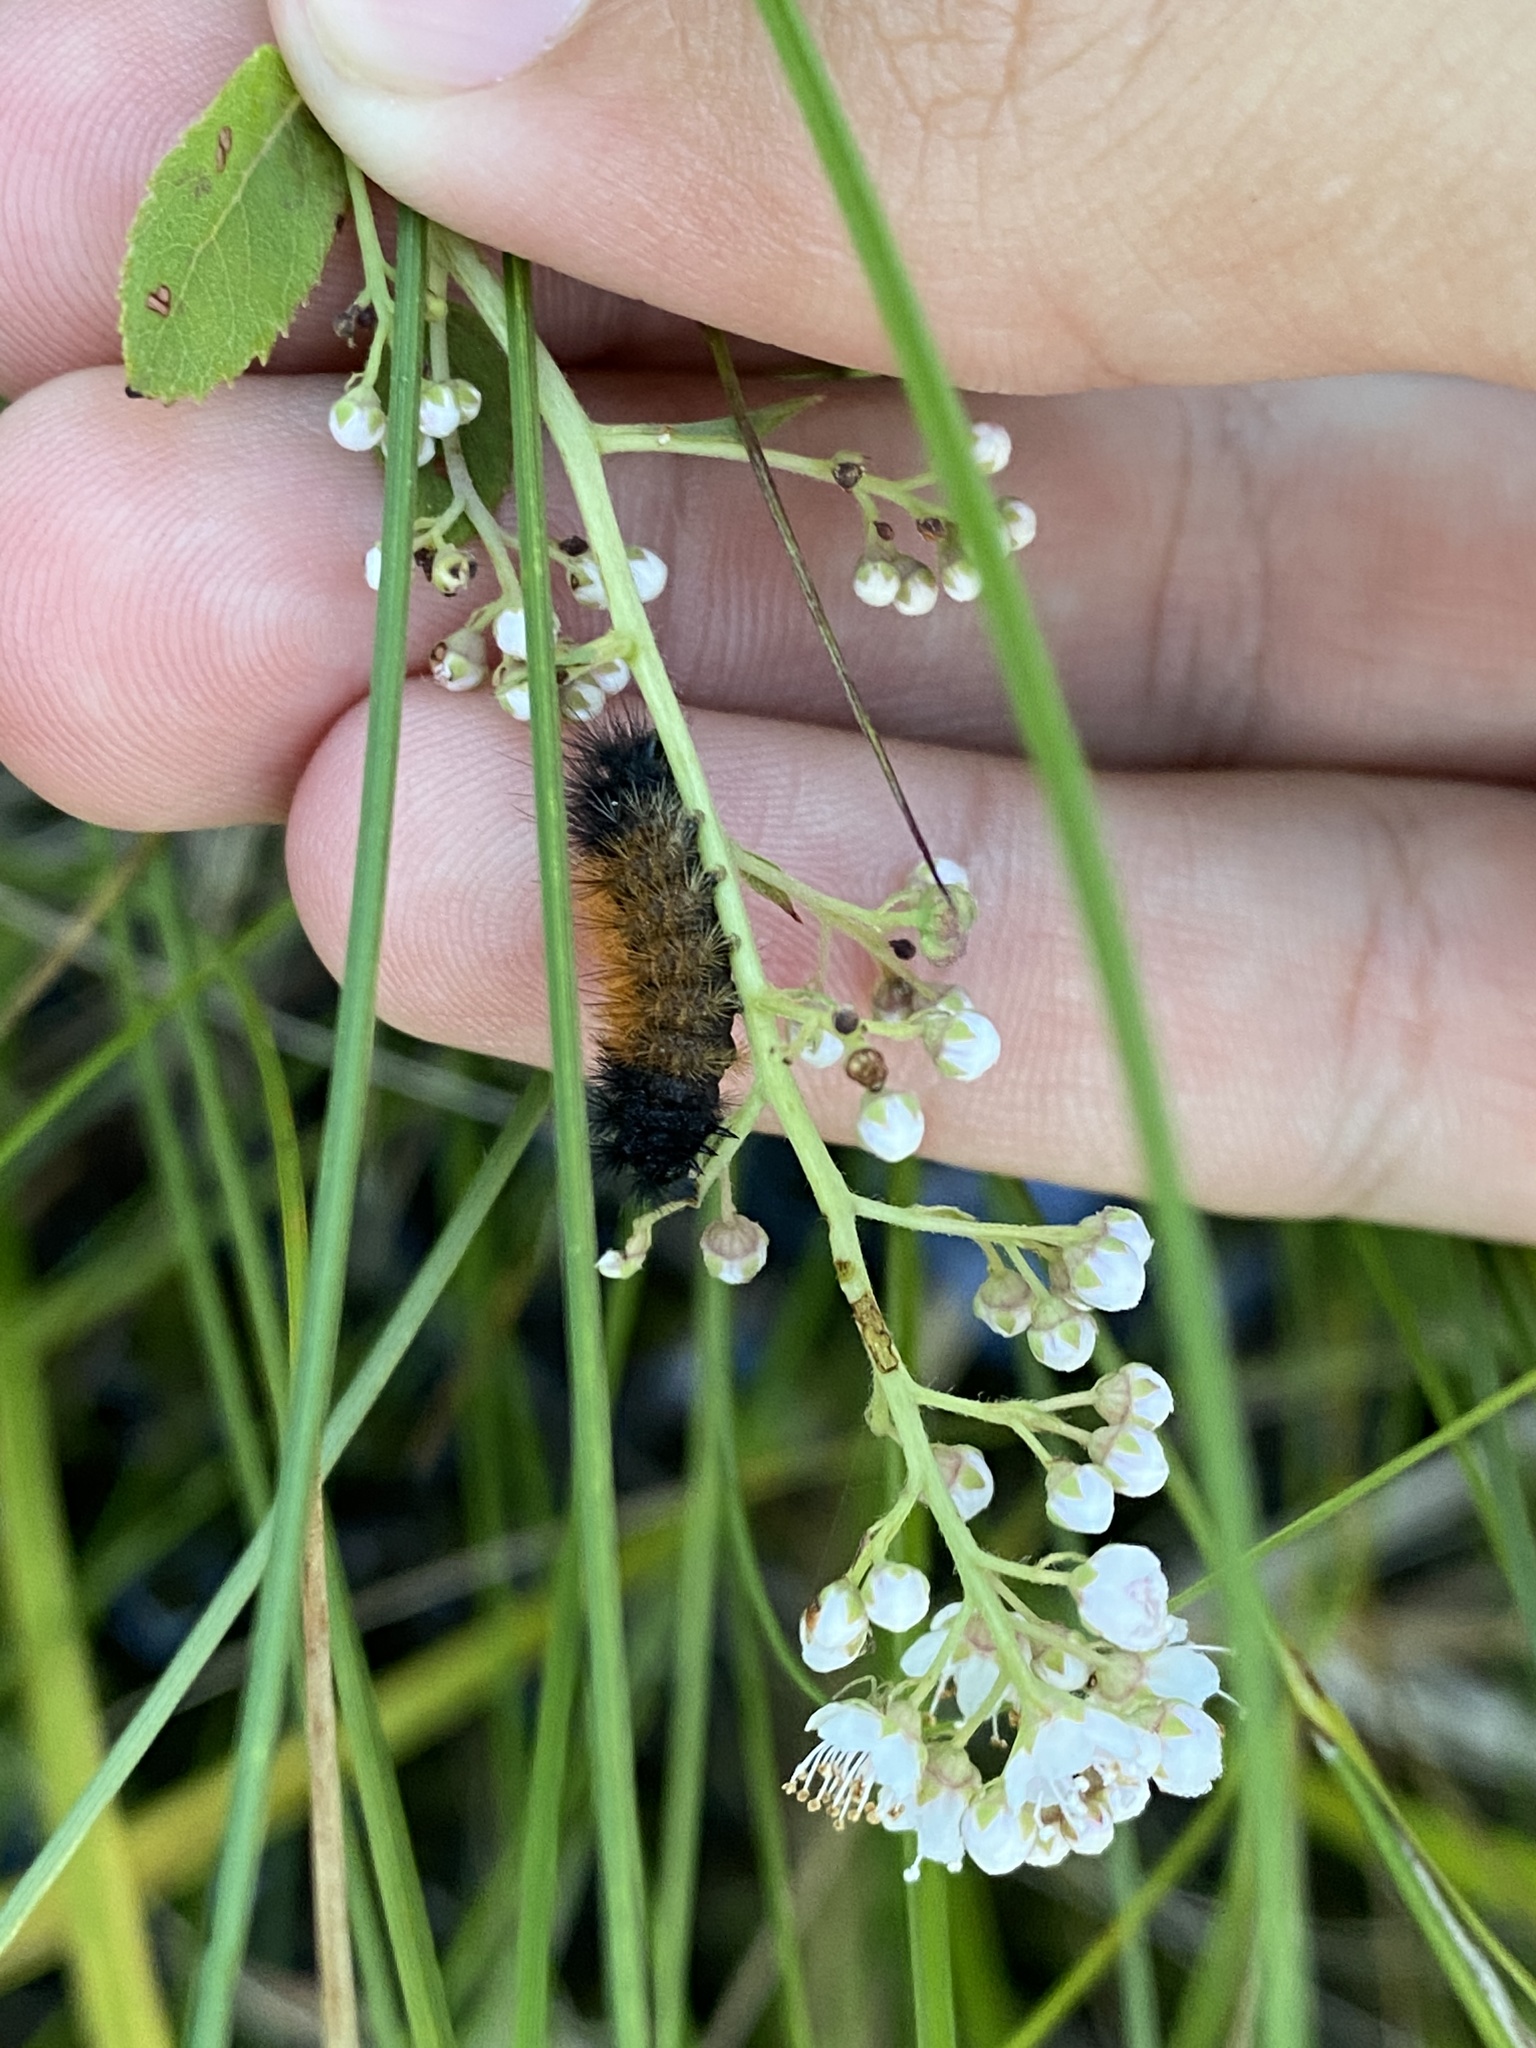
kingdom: Animalia
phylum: Arthropoda
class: Insecta
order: Lepidoptera
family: Erebidae
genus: Pyrrharctia
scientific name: Pyrrharctia isabella
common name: Isabella tiger moth
